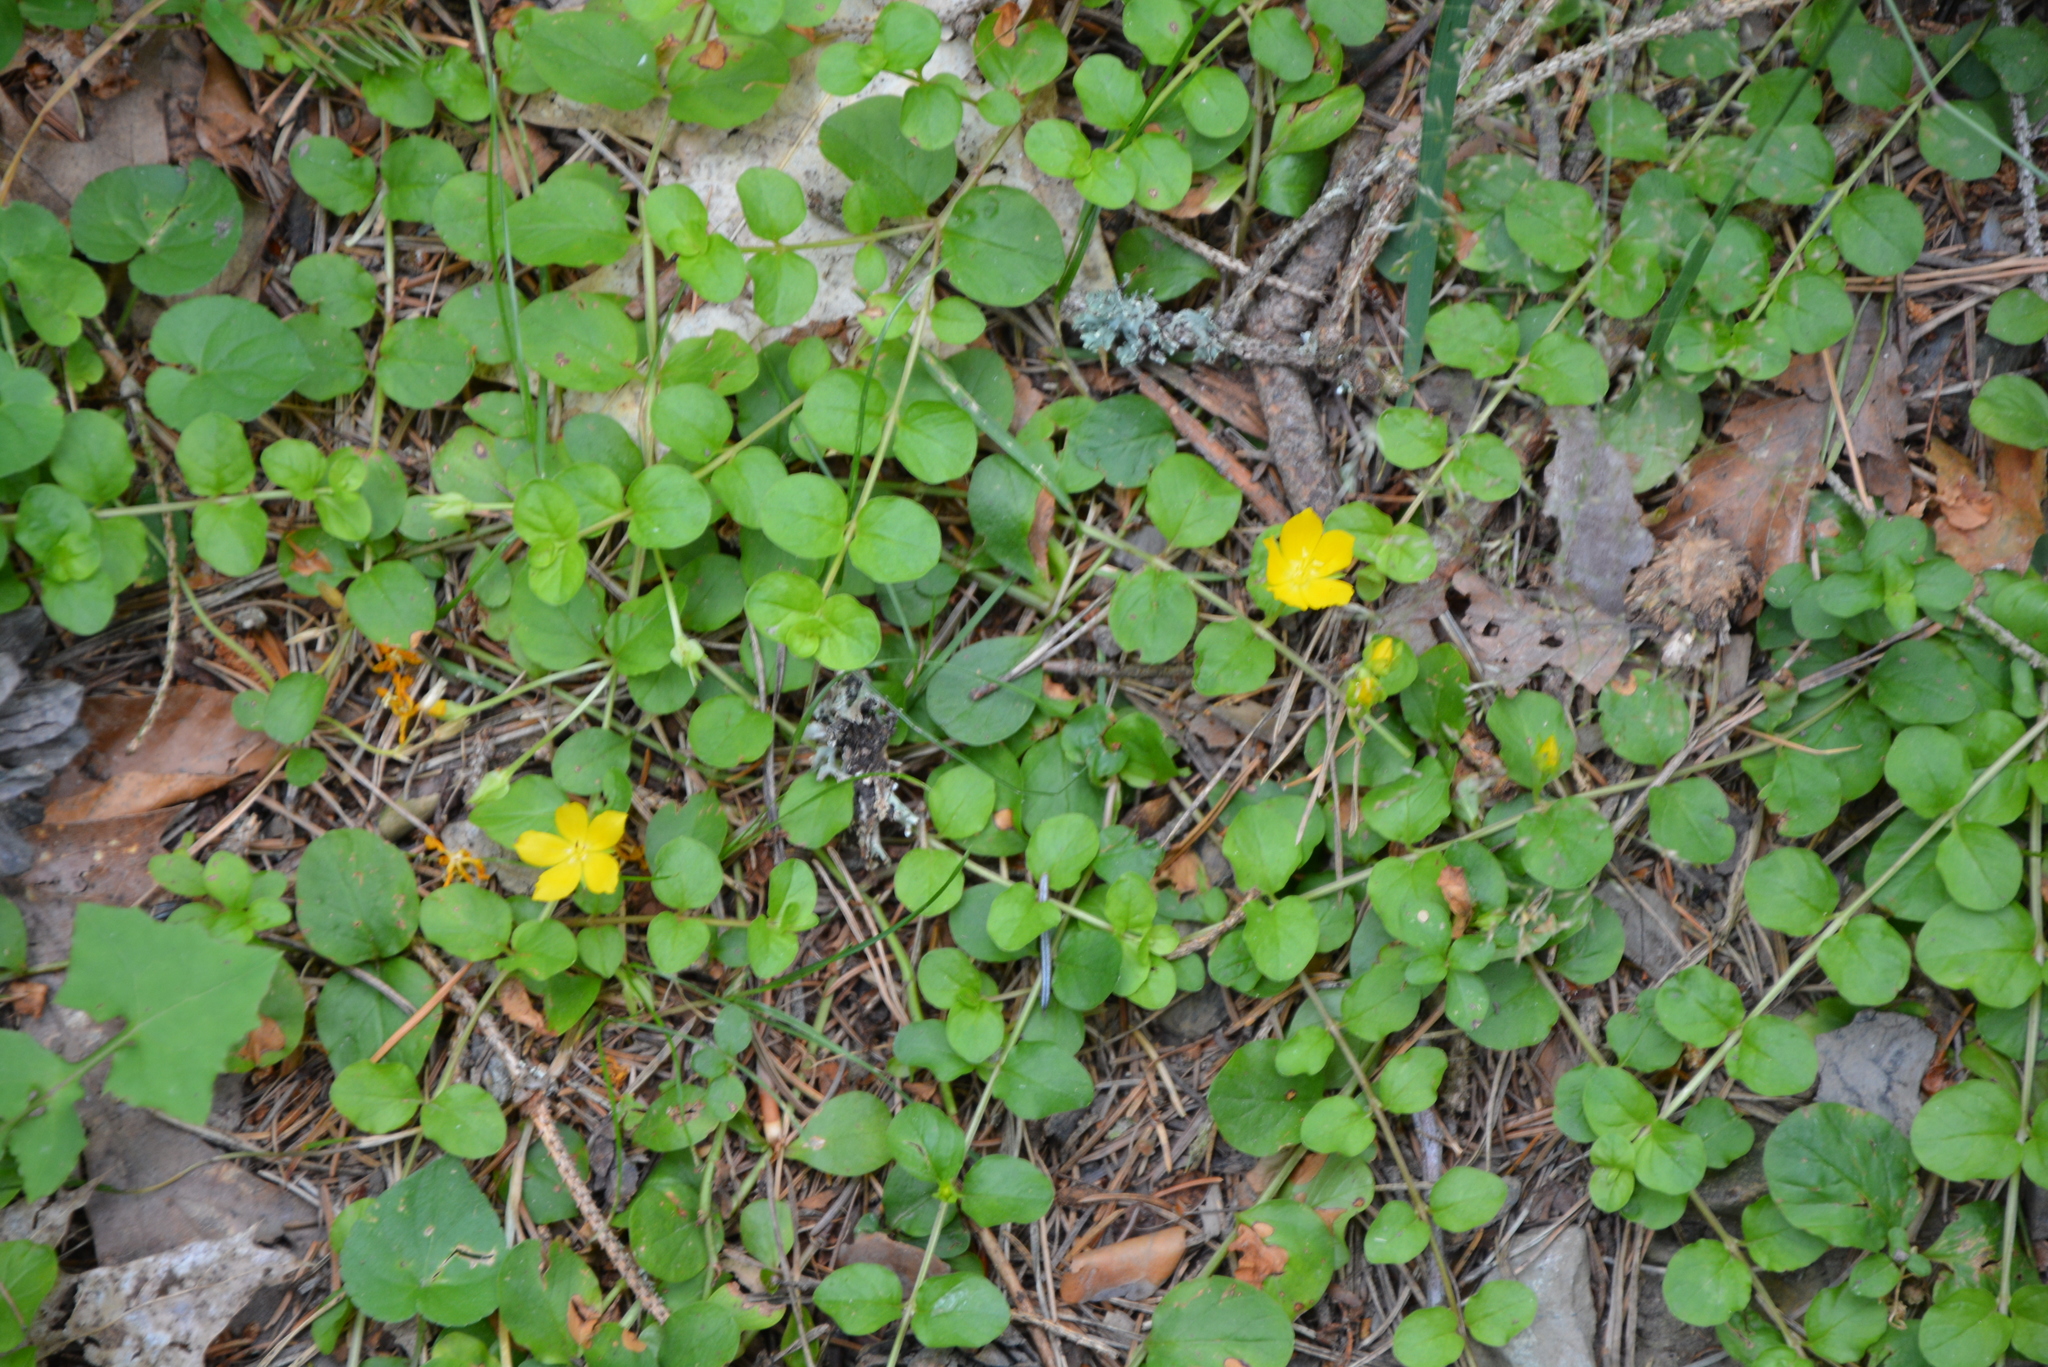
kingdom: Plantae
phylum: Tracheophyta
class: Magnoliopsida
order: Ericales
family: Primulaceae
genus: Lysimachia
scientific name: Lysimachia nummularia
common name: Moneywort
